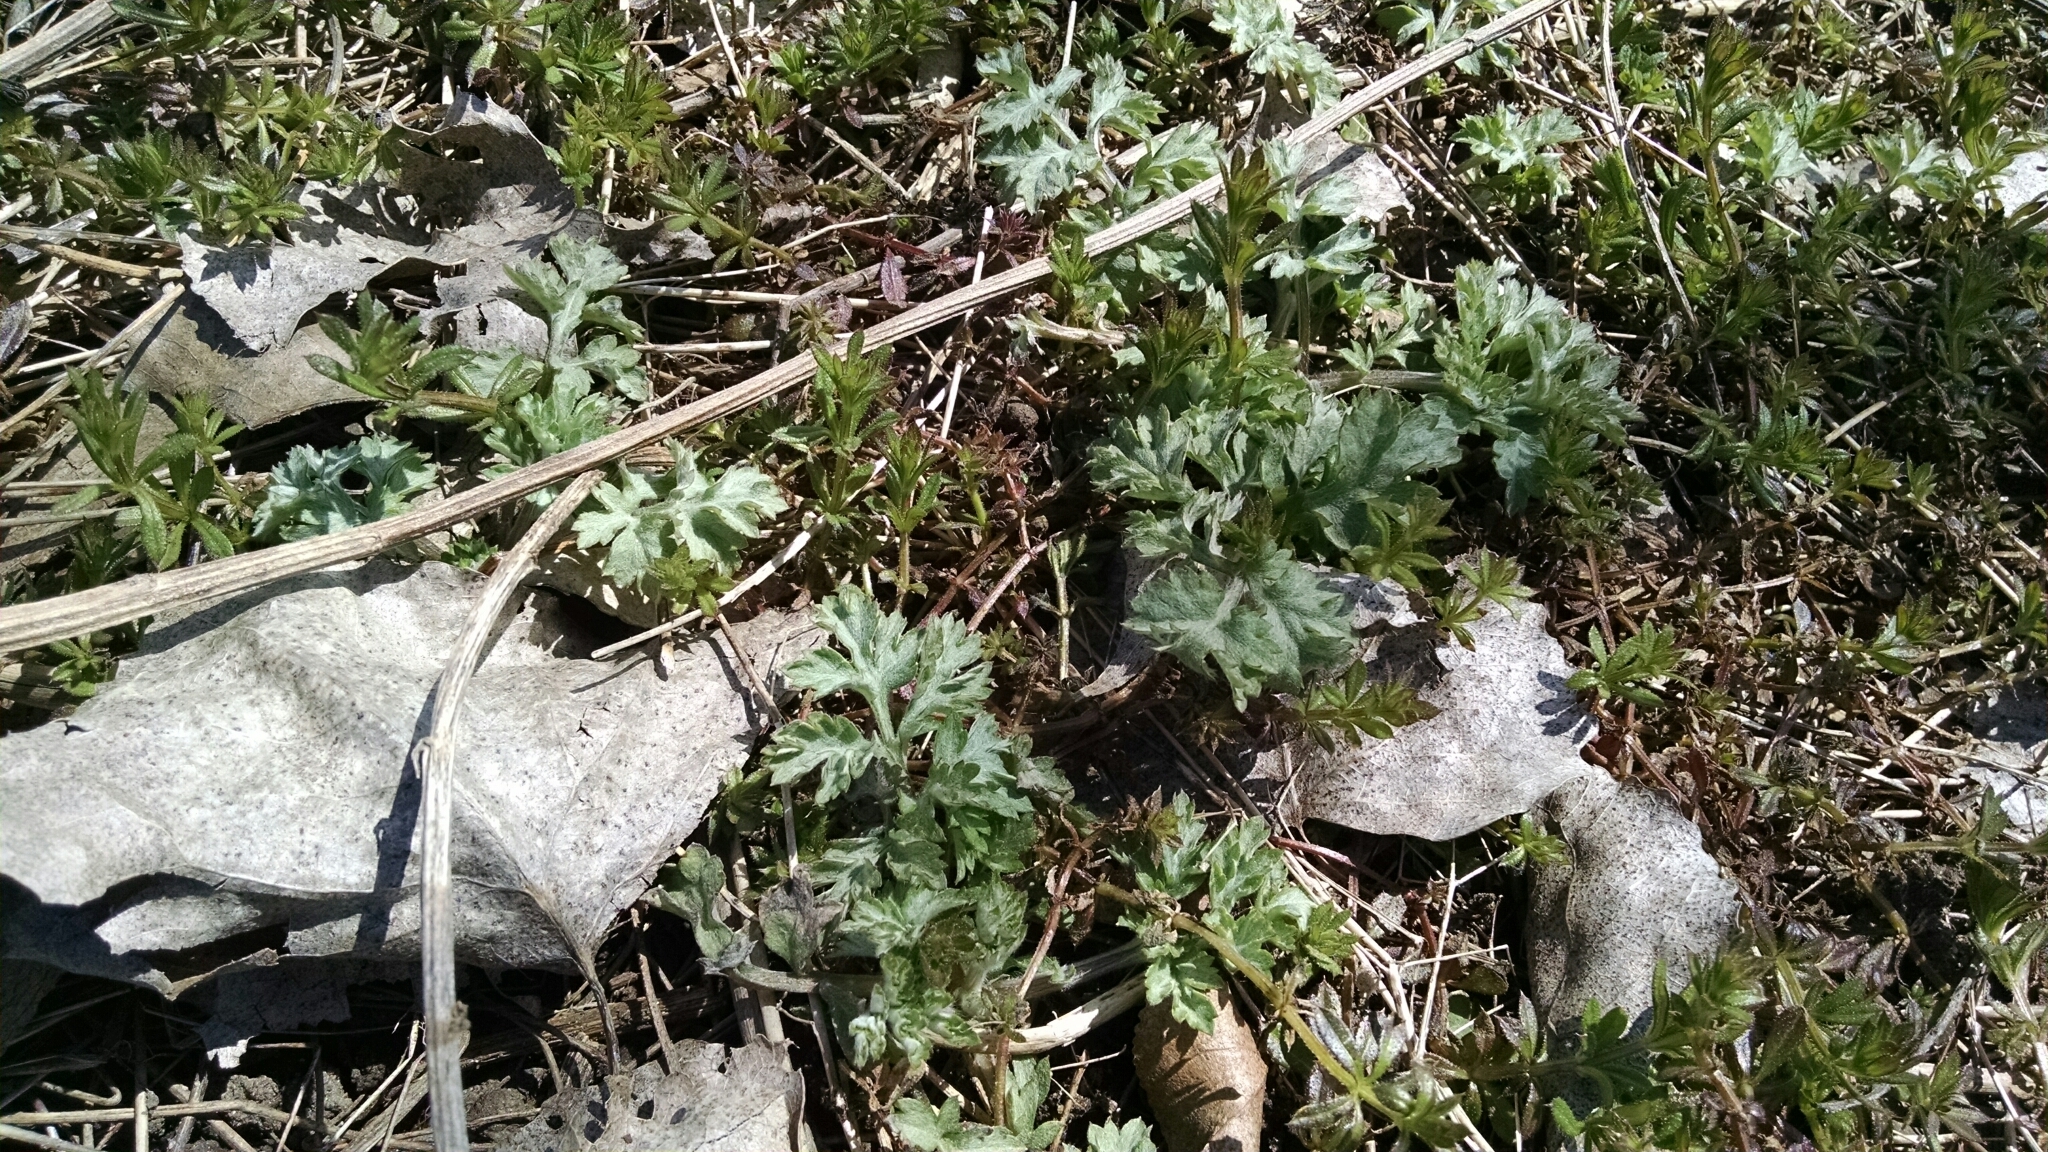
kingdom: Plantae
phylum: Tracheophyta
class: Magnoliopsida
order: Asterales
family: Asteraceae
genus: Artemisia
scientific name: Artemisia vulgaris
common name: Mugwort
